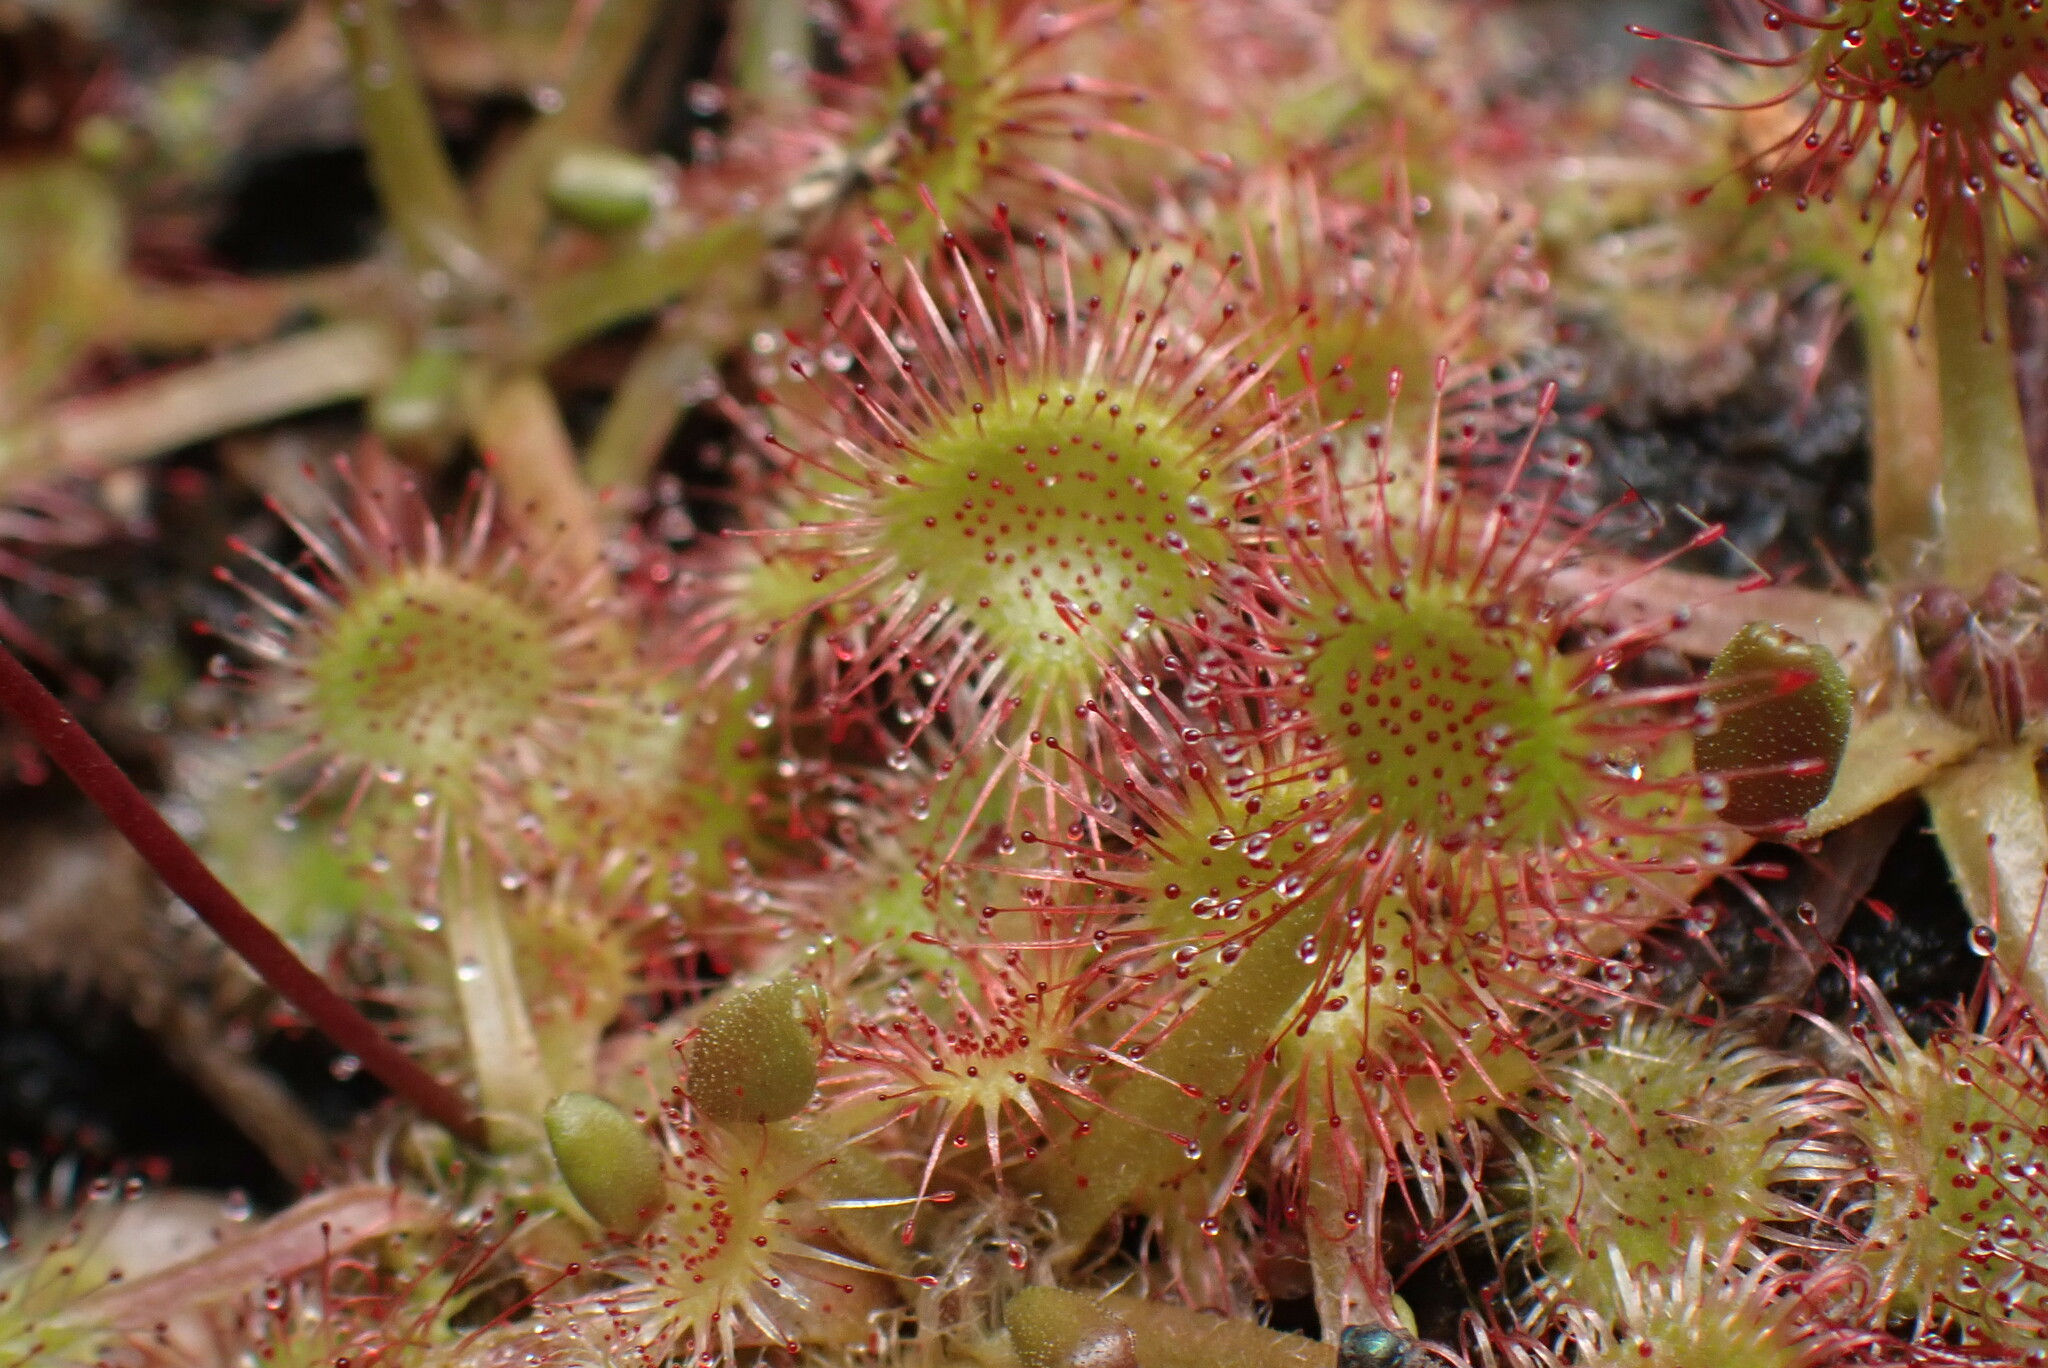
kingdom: Plantae
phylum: Tracheophyta
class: Magnoliopsida
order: Caryophyllales
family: Droseraceae
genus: Drosera
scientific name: Drosera rotundifolia
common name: Round-leaved sundew
